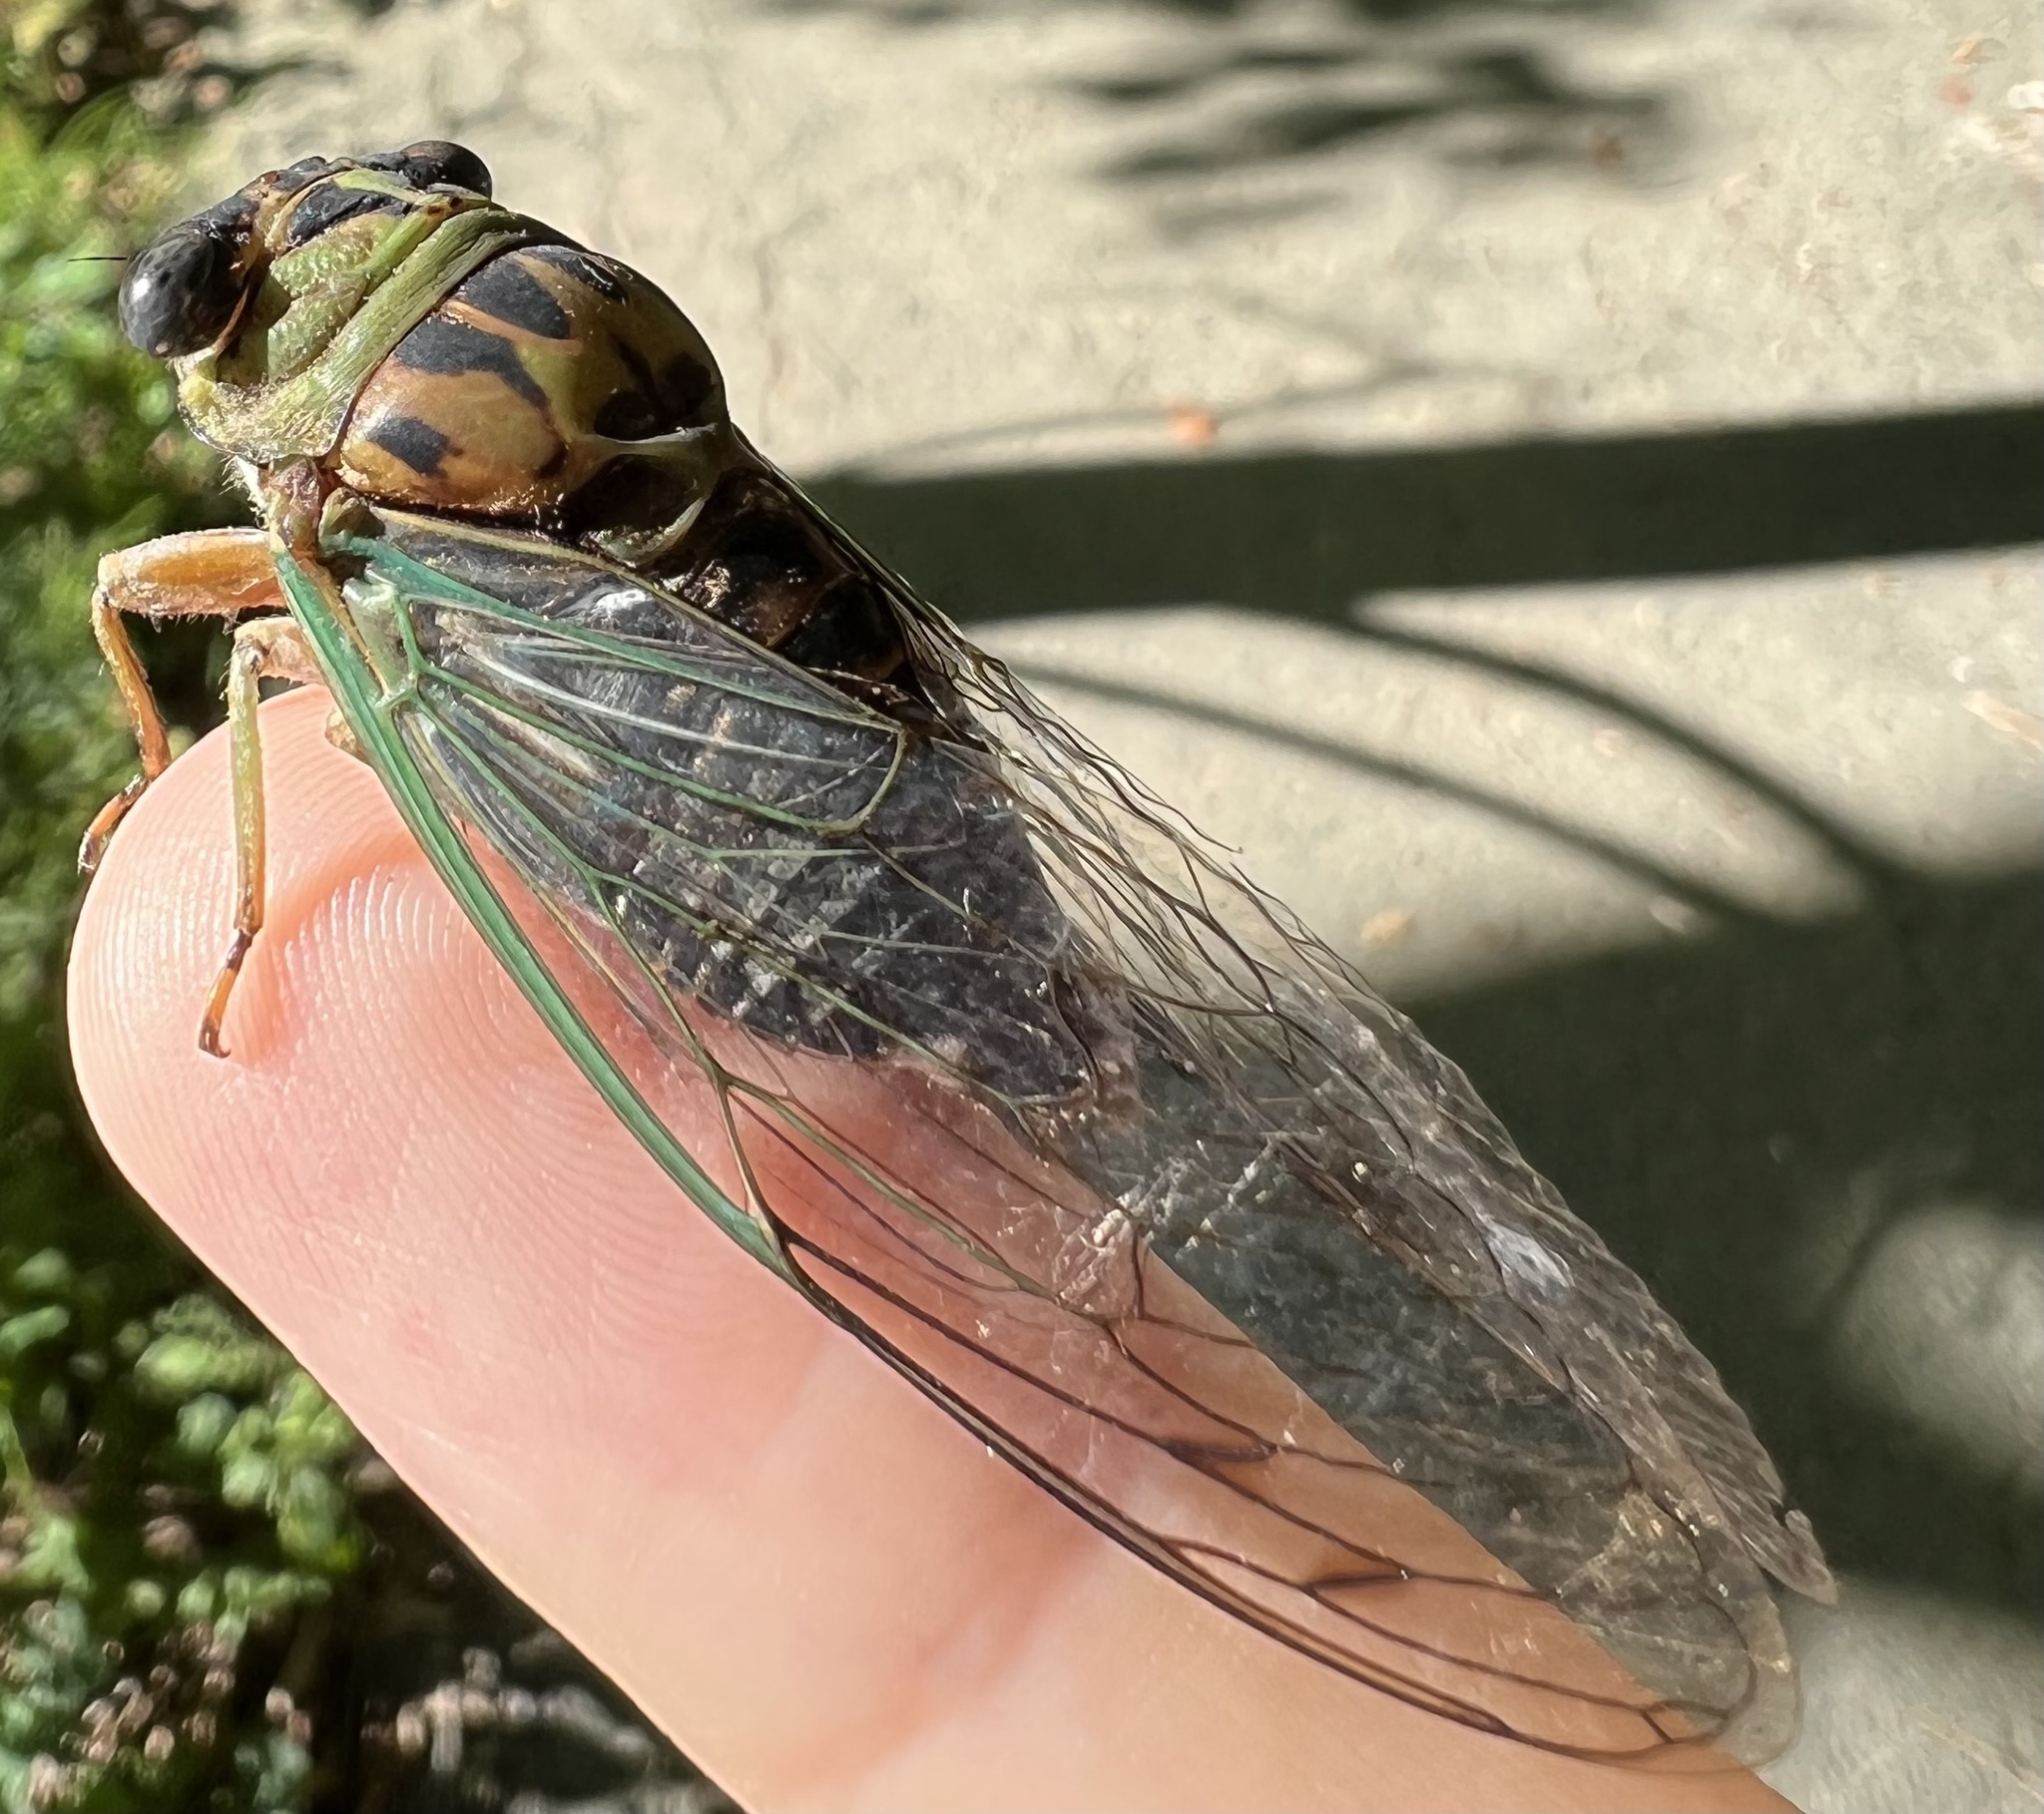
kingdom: Animalia
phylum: Arthropoda
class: Insecta
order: Hemiptera
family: Cicadidae
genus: Neotibicen
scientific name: Neotibicen winnemanna
